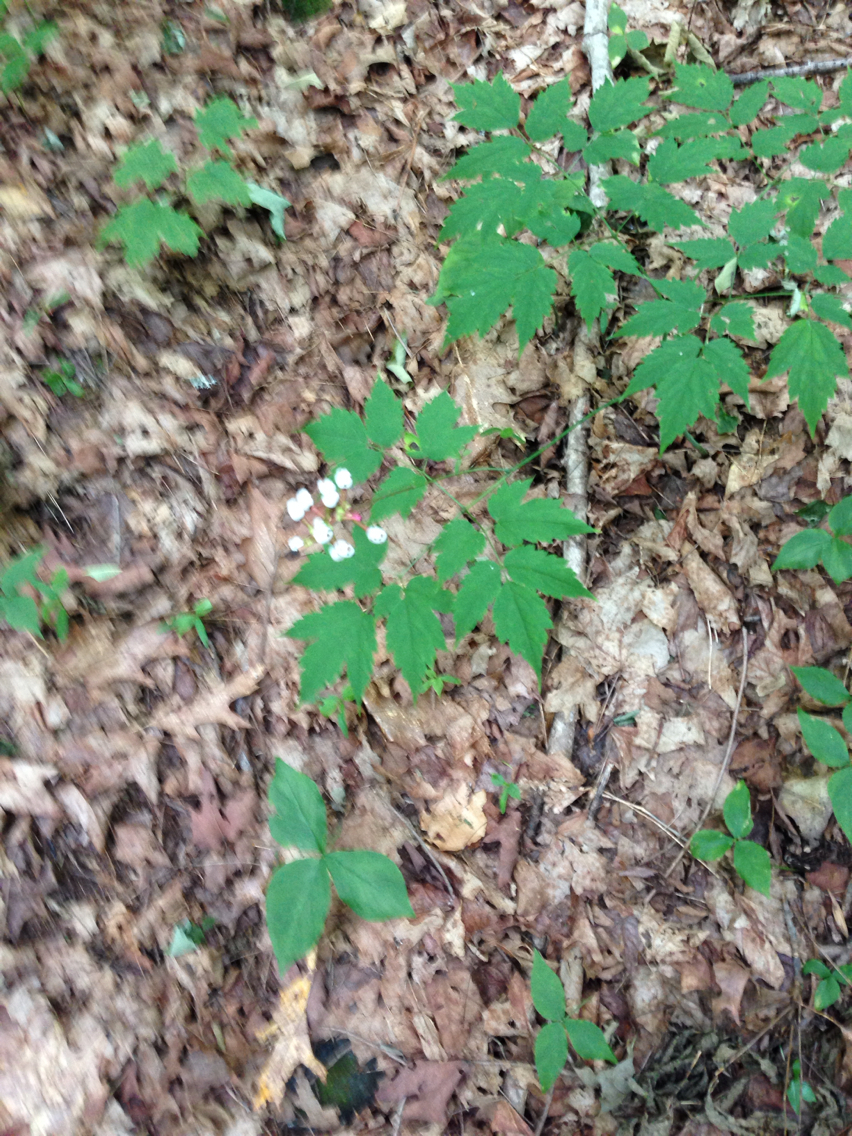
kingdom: Plantae
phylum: Tracheophyta
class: Magnoliopsida
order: Ranunculales
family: Ranunculaceae
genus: Actaea
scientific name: Actaea pachypoda
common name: Doll's-eyes
